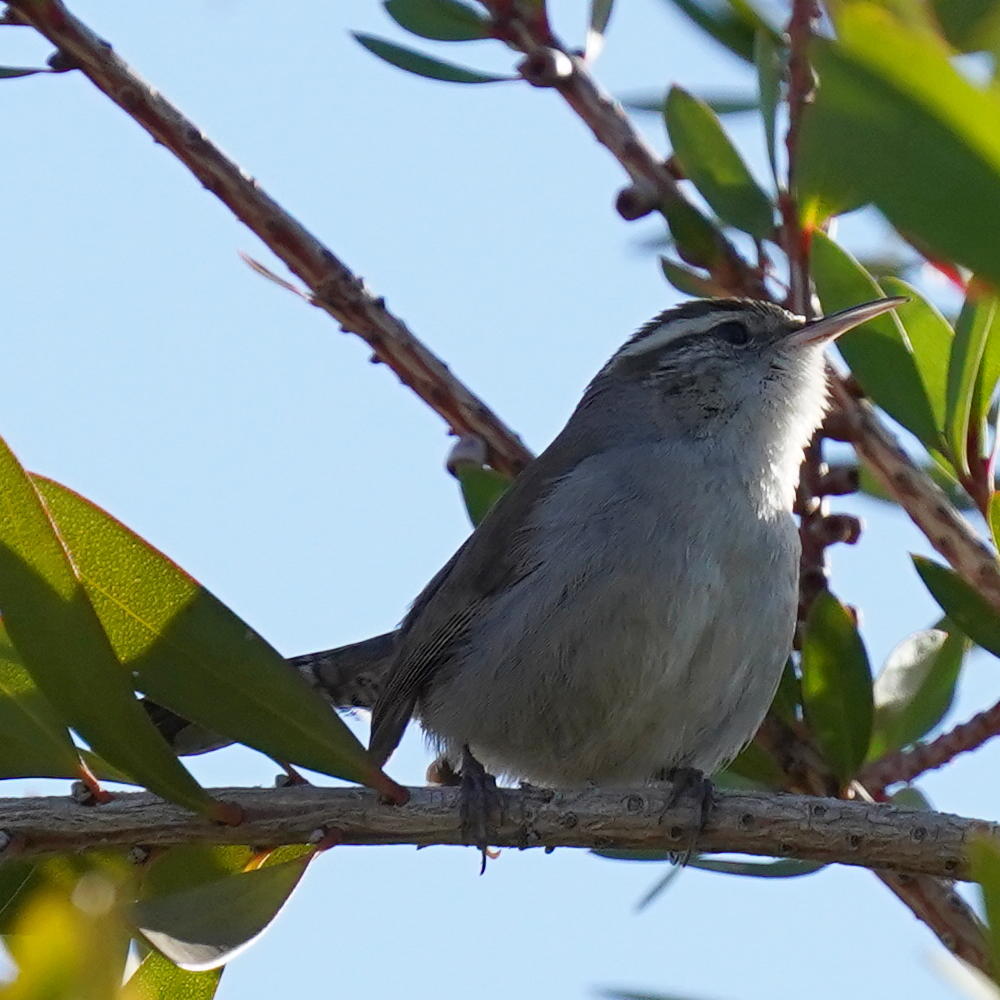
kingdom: Animalia
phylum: Chordata
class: Aves
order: Passeriformes
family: Troglodytidae
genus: Thryomanes
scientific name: Thryomanes bewickii
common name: Bewick's wren
